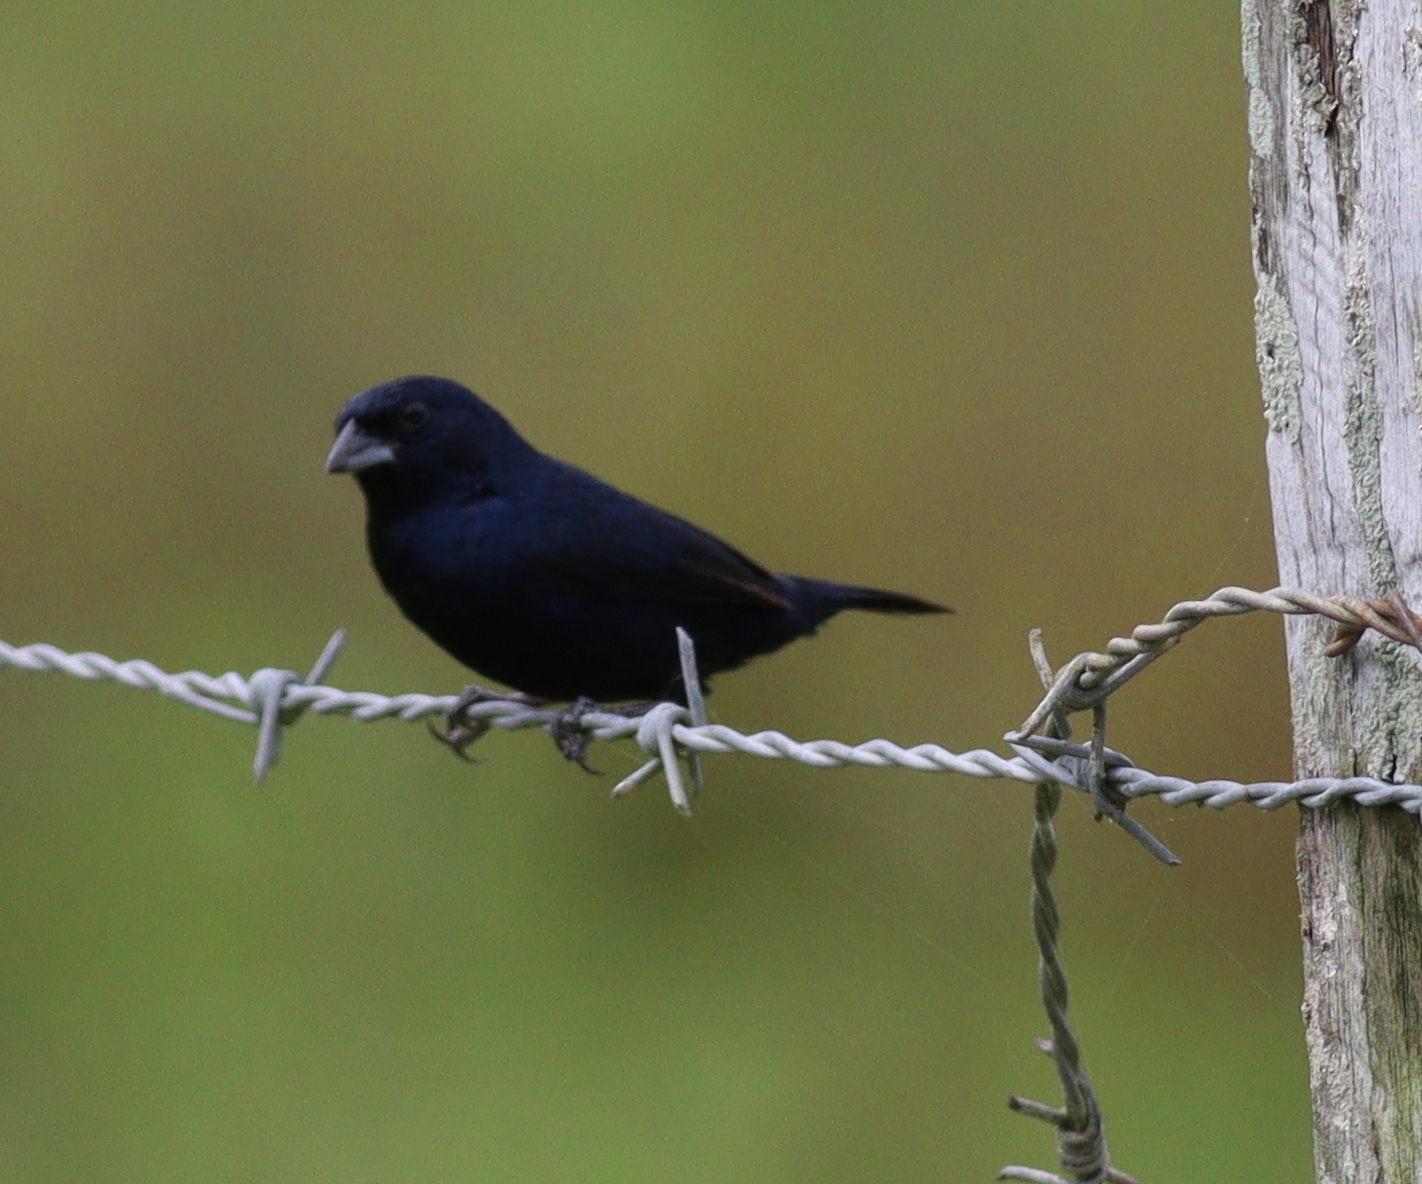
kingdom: Animalia
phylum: Chordata
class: Aves
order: Passeriformes
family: Thraupidae
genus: Volatinia
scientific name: Volatinia jacarina
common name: Blue-black grassquit
